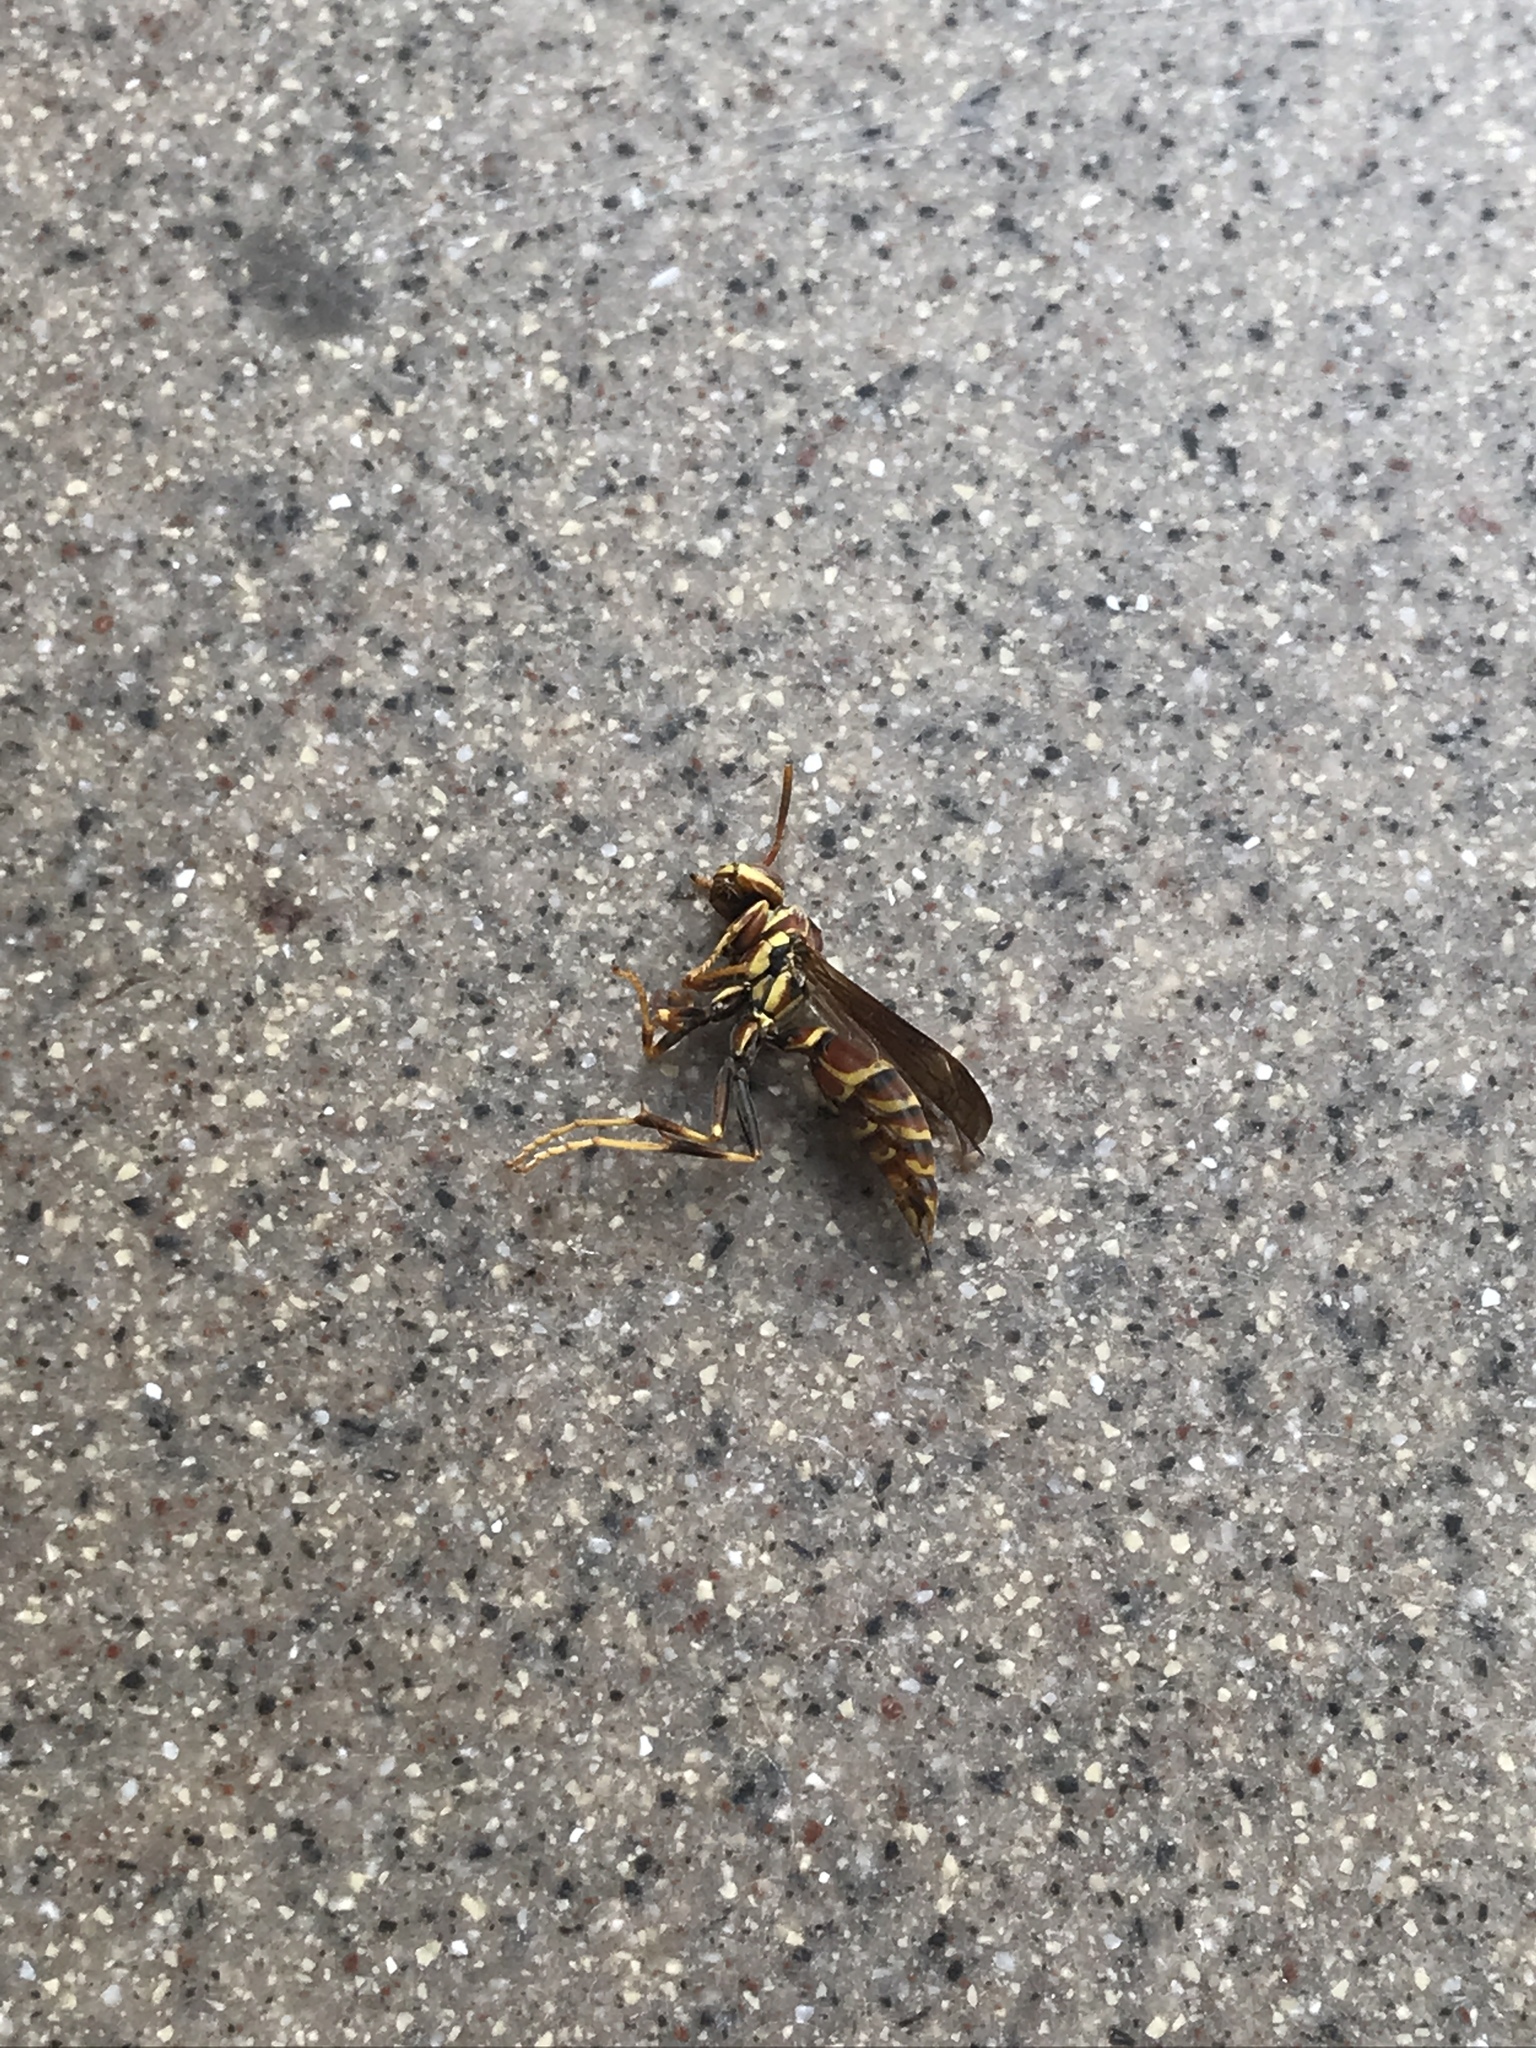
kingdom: Animalia
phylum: Arthropoda
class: Insecta
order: Hymenoptera
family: Eumenidae
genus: Polistes
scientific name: Polistes exclamans
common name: Paper wasp
